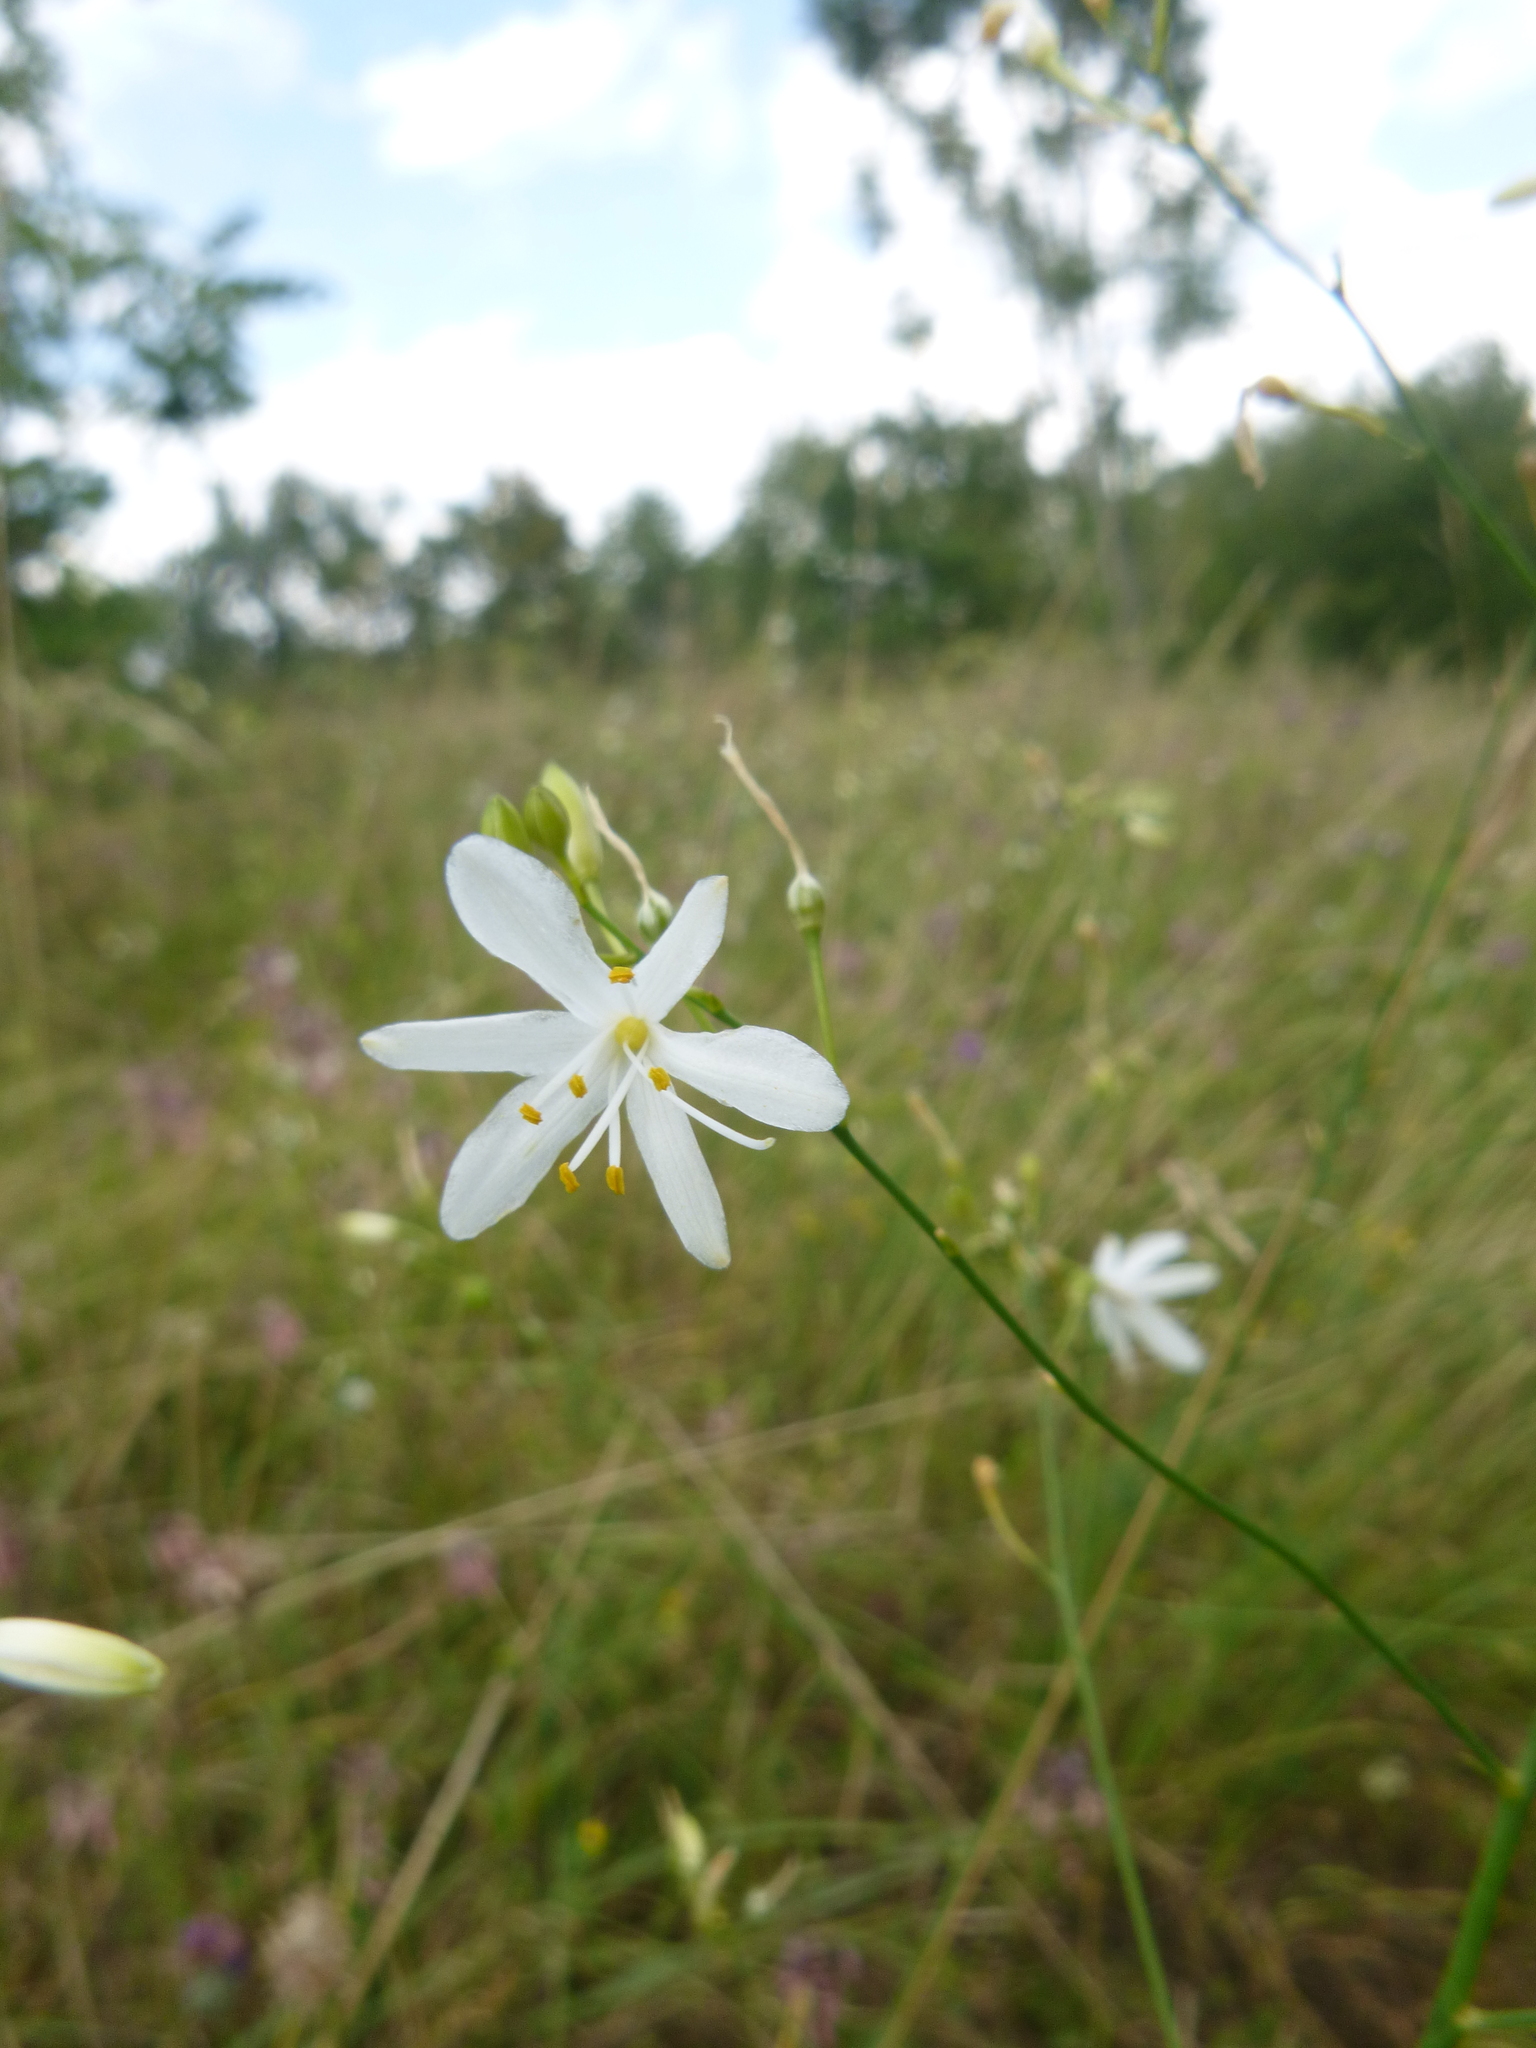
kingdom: Plantae
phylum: Tracheophyta
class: Liliopsida
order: Asparagales
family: Asparagaceae
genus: Anthericum
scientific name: Anthericum ramosum
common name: Branched st. bernard's-lily
